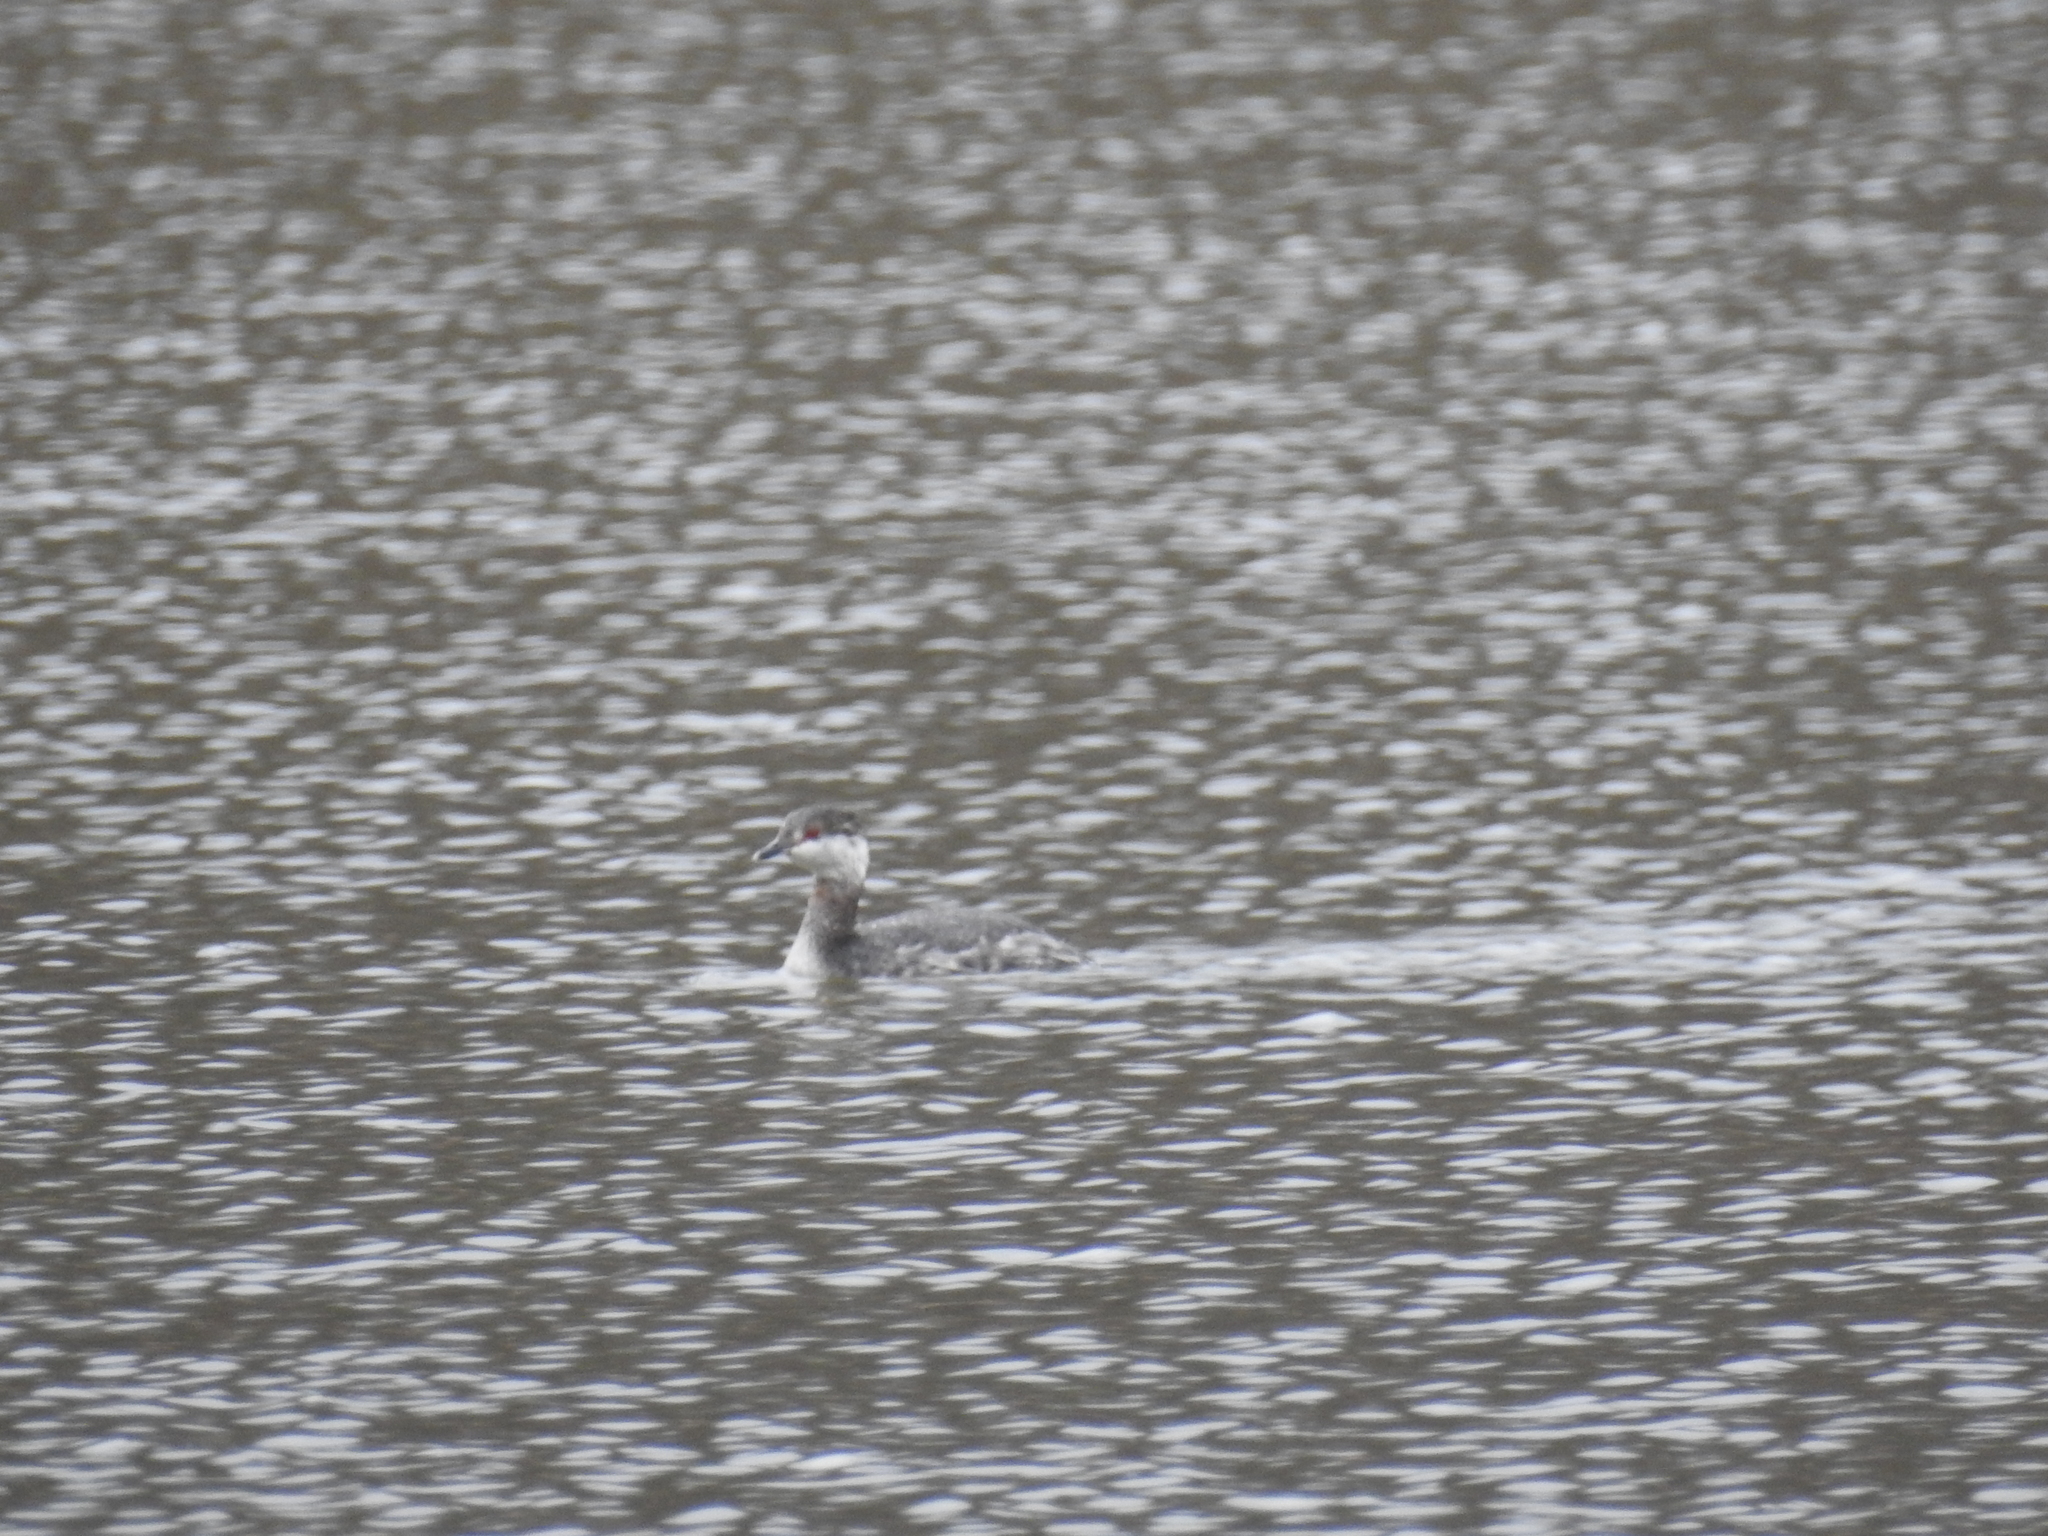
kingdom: Animalia
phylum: Chordata
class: Aves
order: Podicipediformes
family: Podicipedidae
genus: Podiceps
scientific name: Podiceps auritus
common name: Horned grebe
